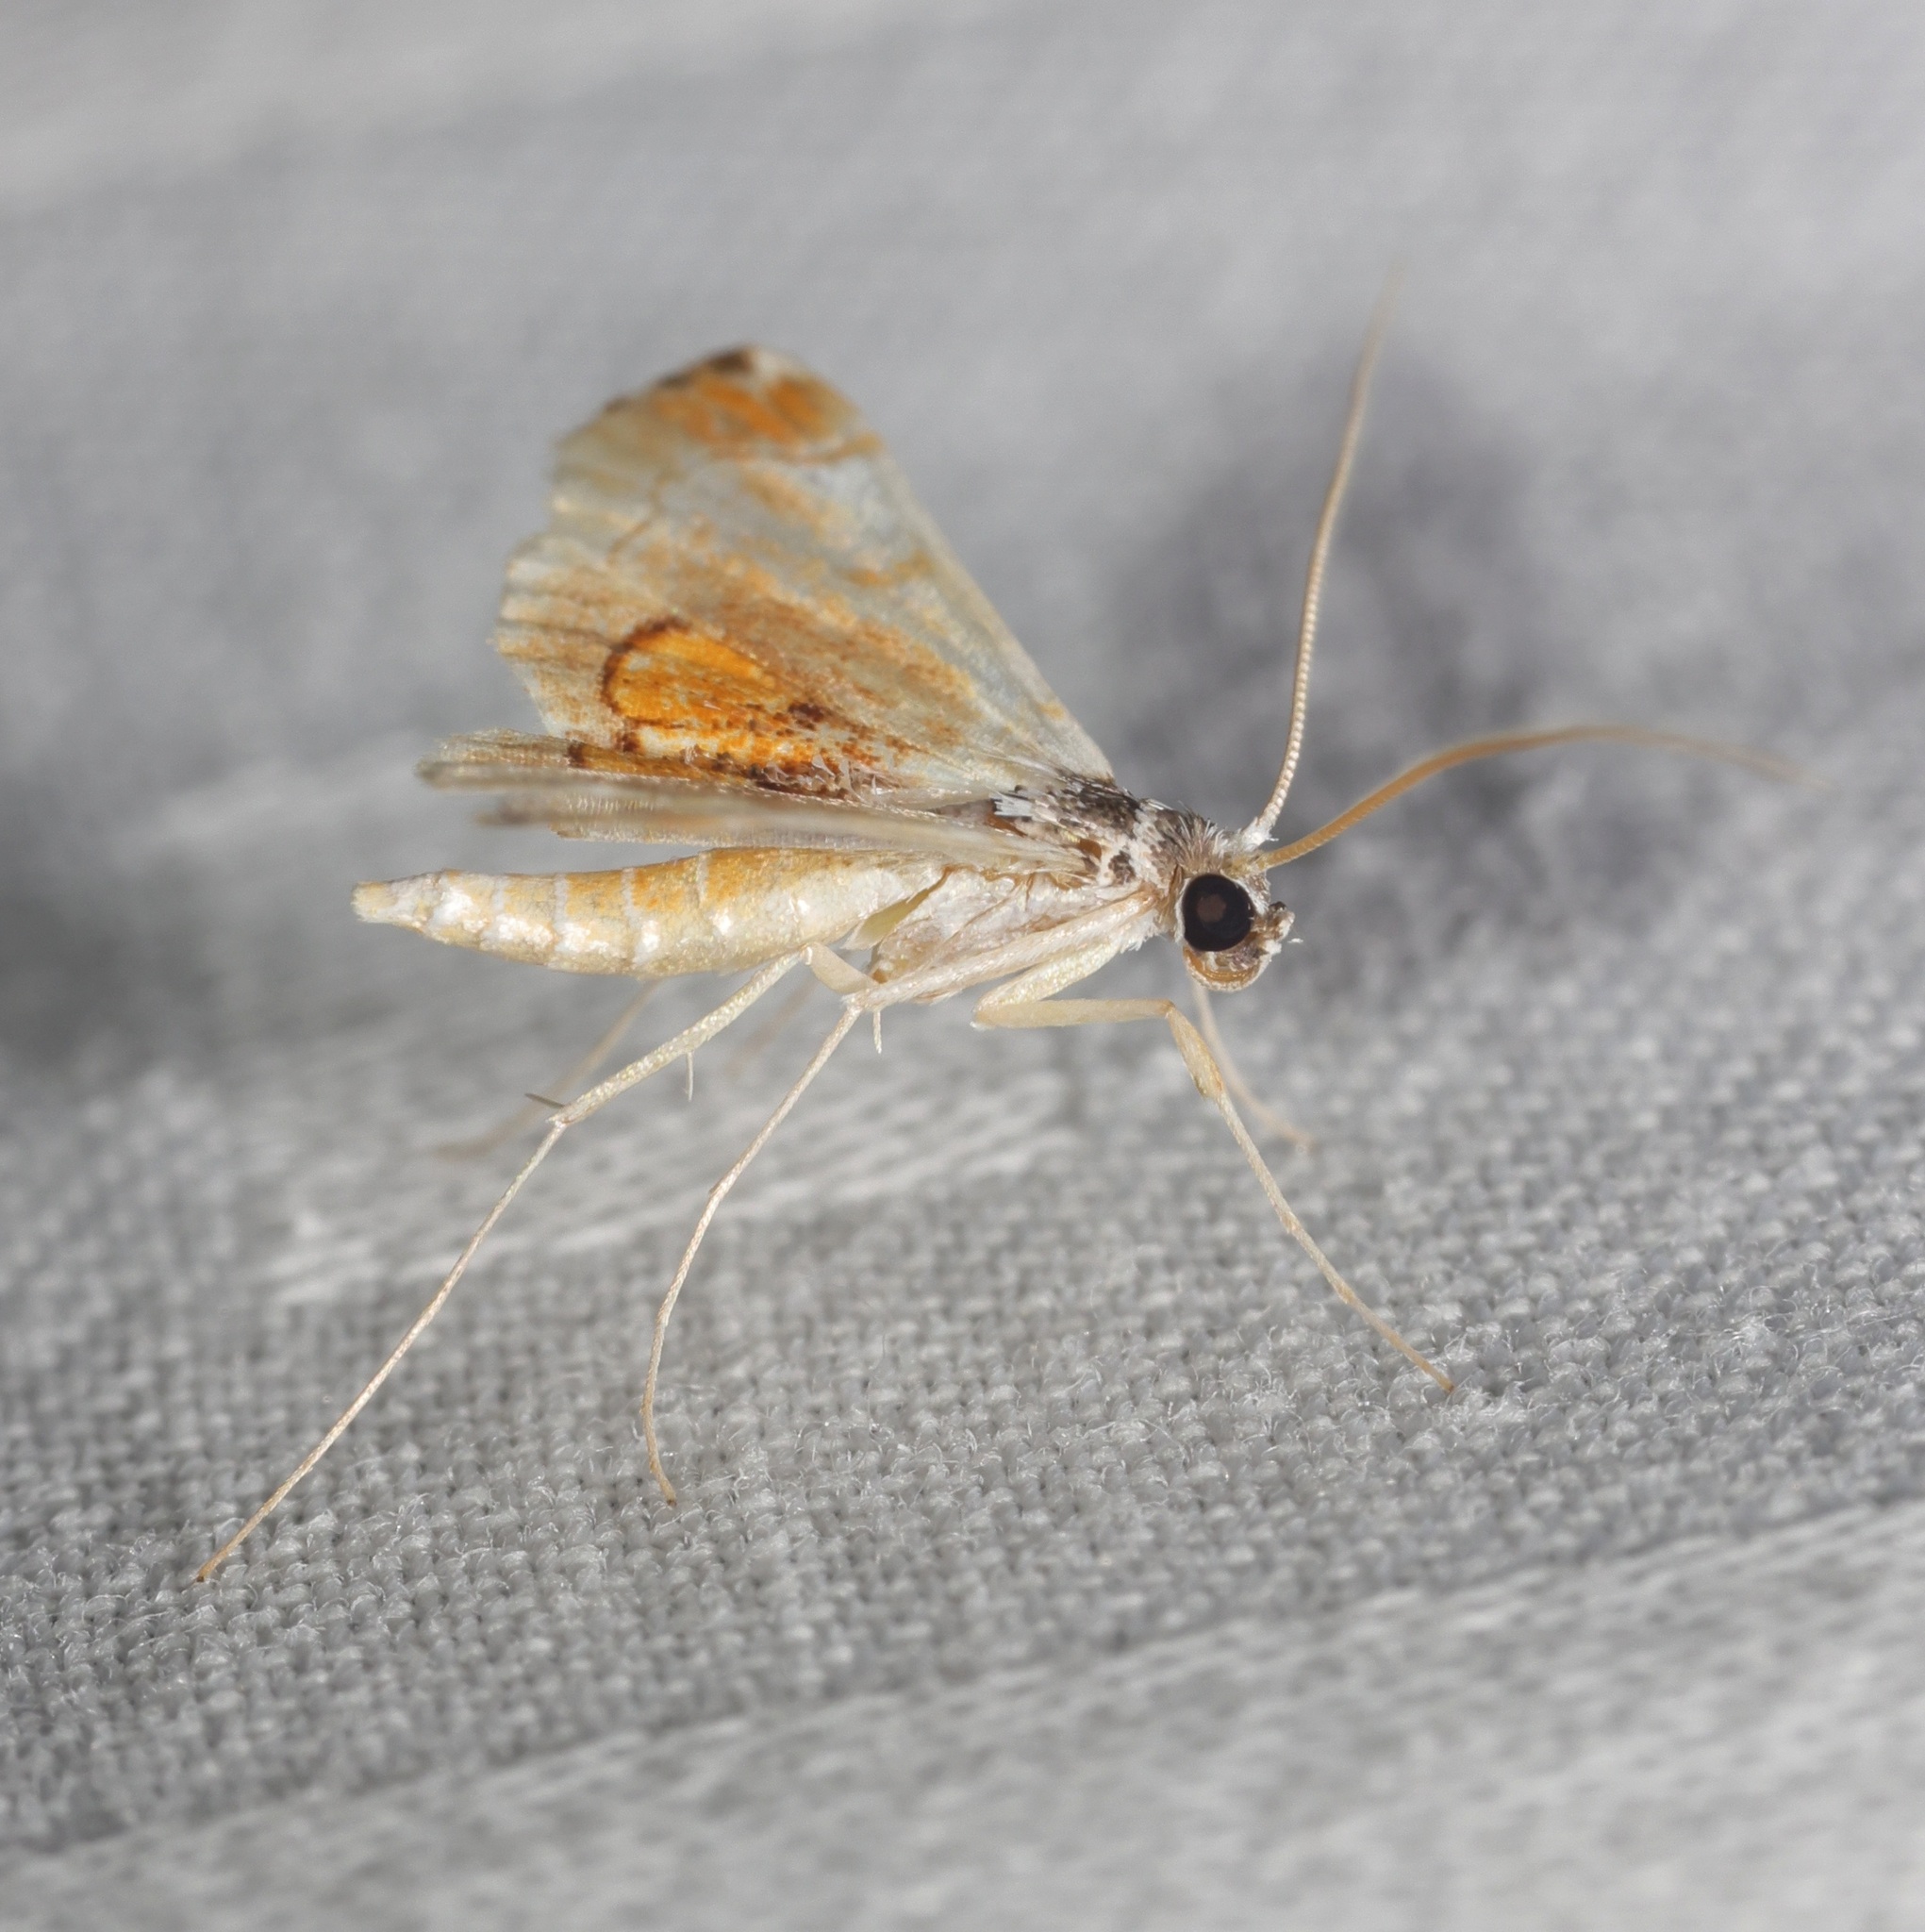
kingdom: Animalia
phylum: Arthropoda
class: Insecta
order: Lepidoptera
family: Crambidae
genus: Hendecasis
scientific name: Hendecasis pulchella
